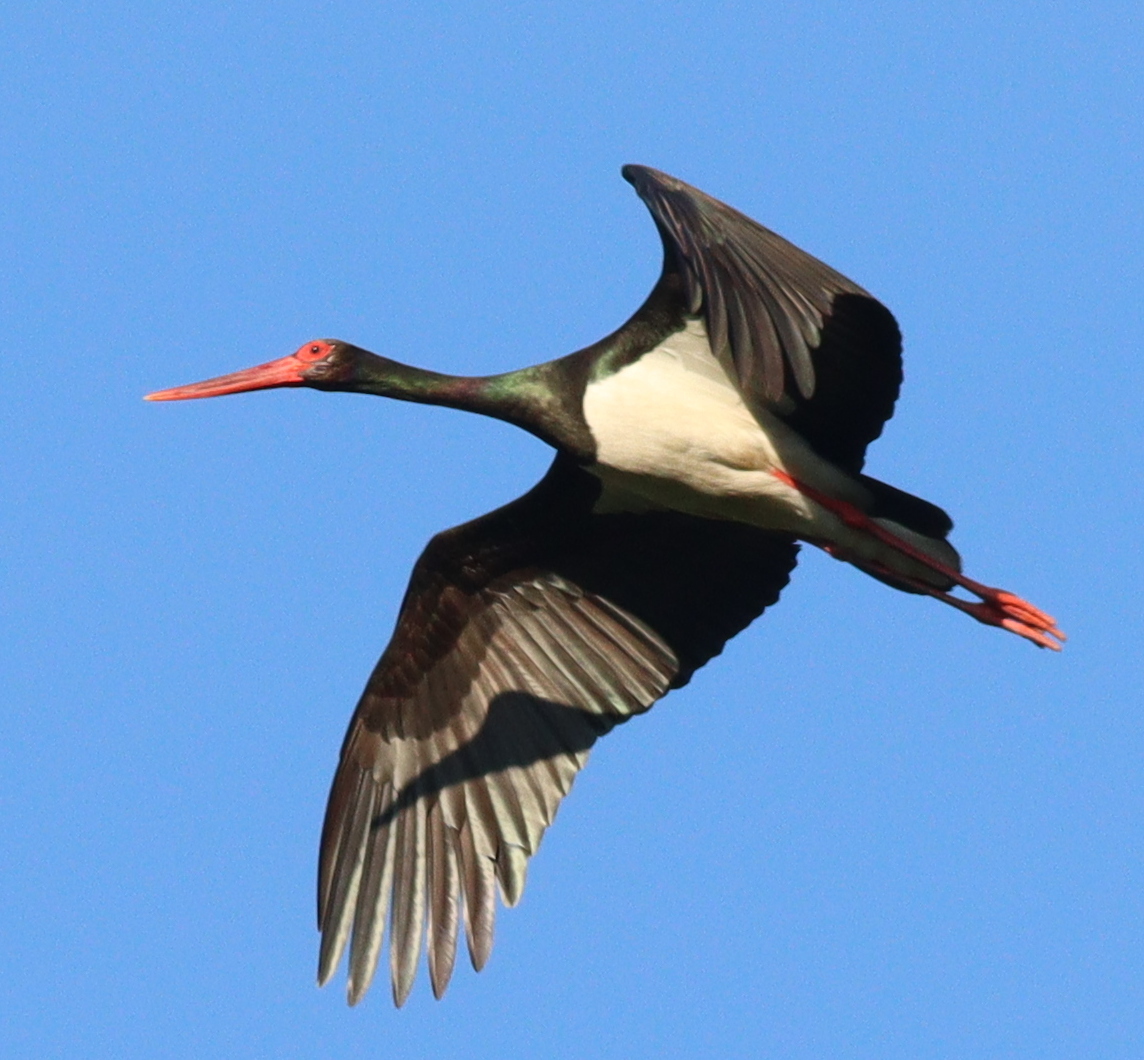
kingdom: Animalia
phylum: Chordata
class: Aves
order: Ciconiiformes
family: Ciconiidae
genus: Ciconia
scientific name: Ciconia nigra
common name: Black stork
